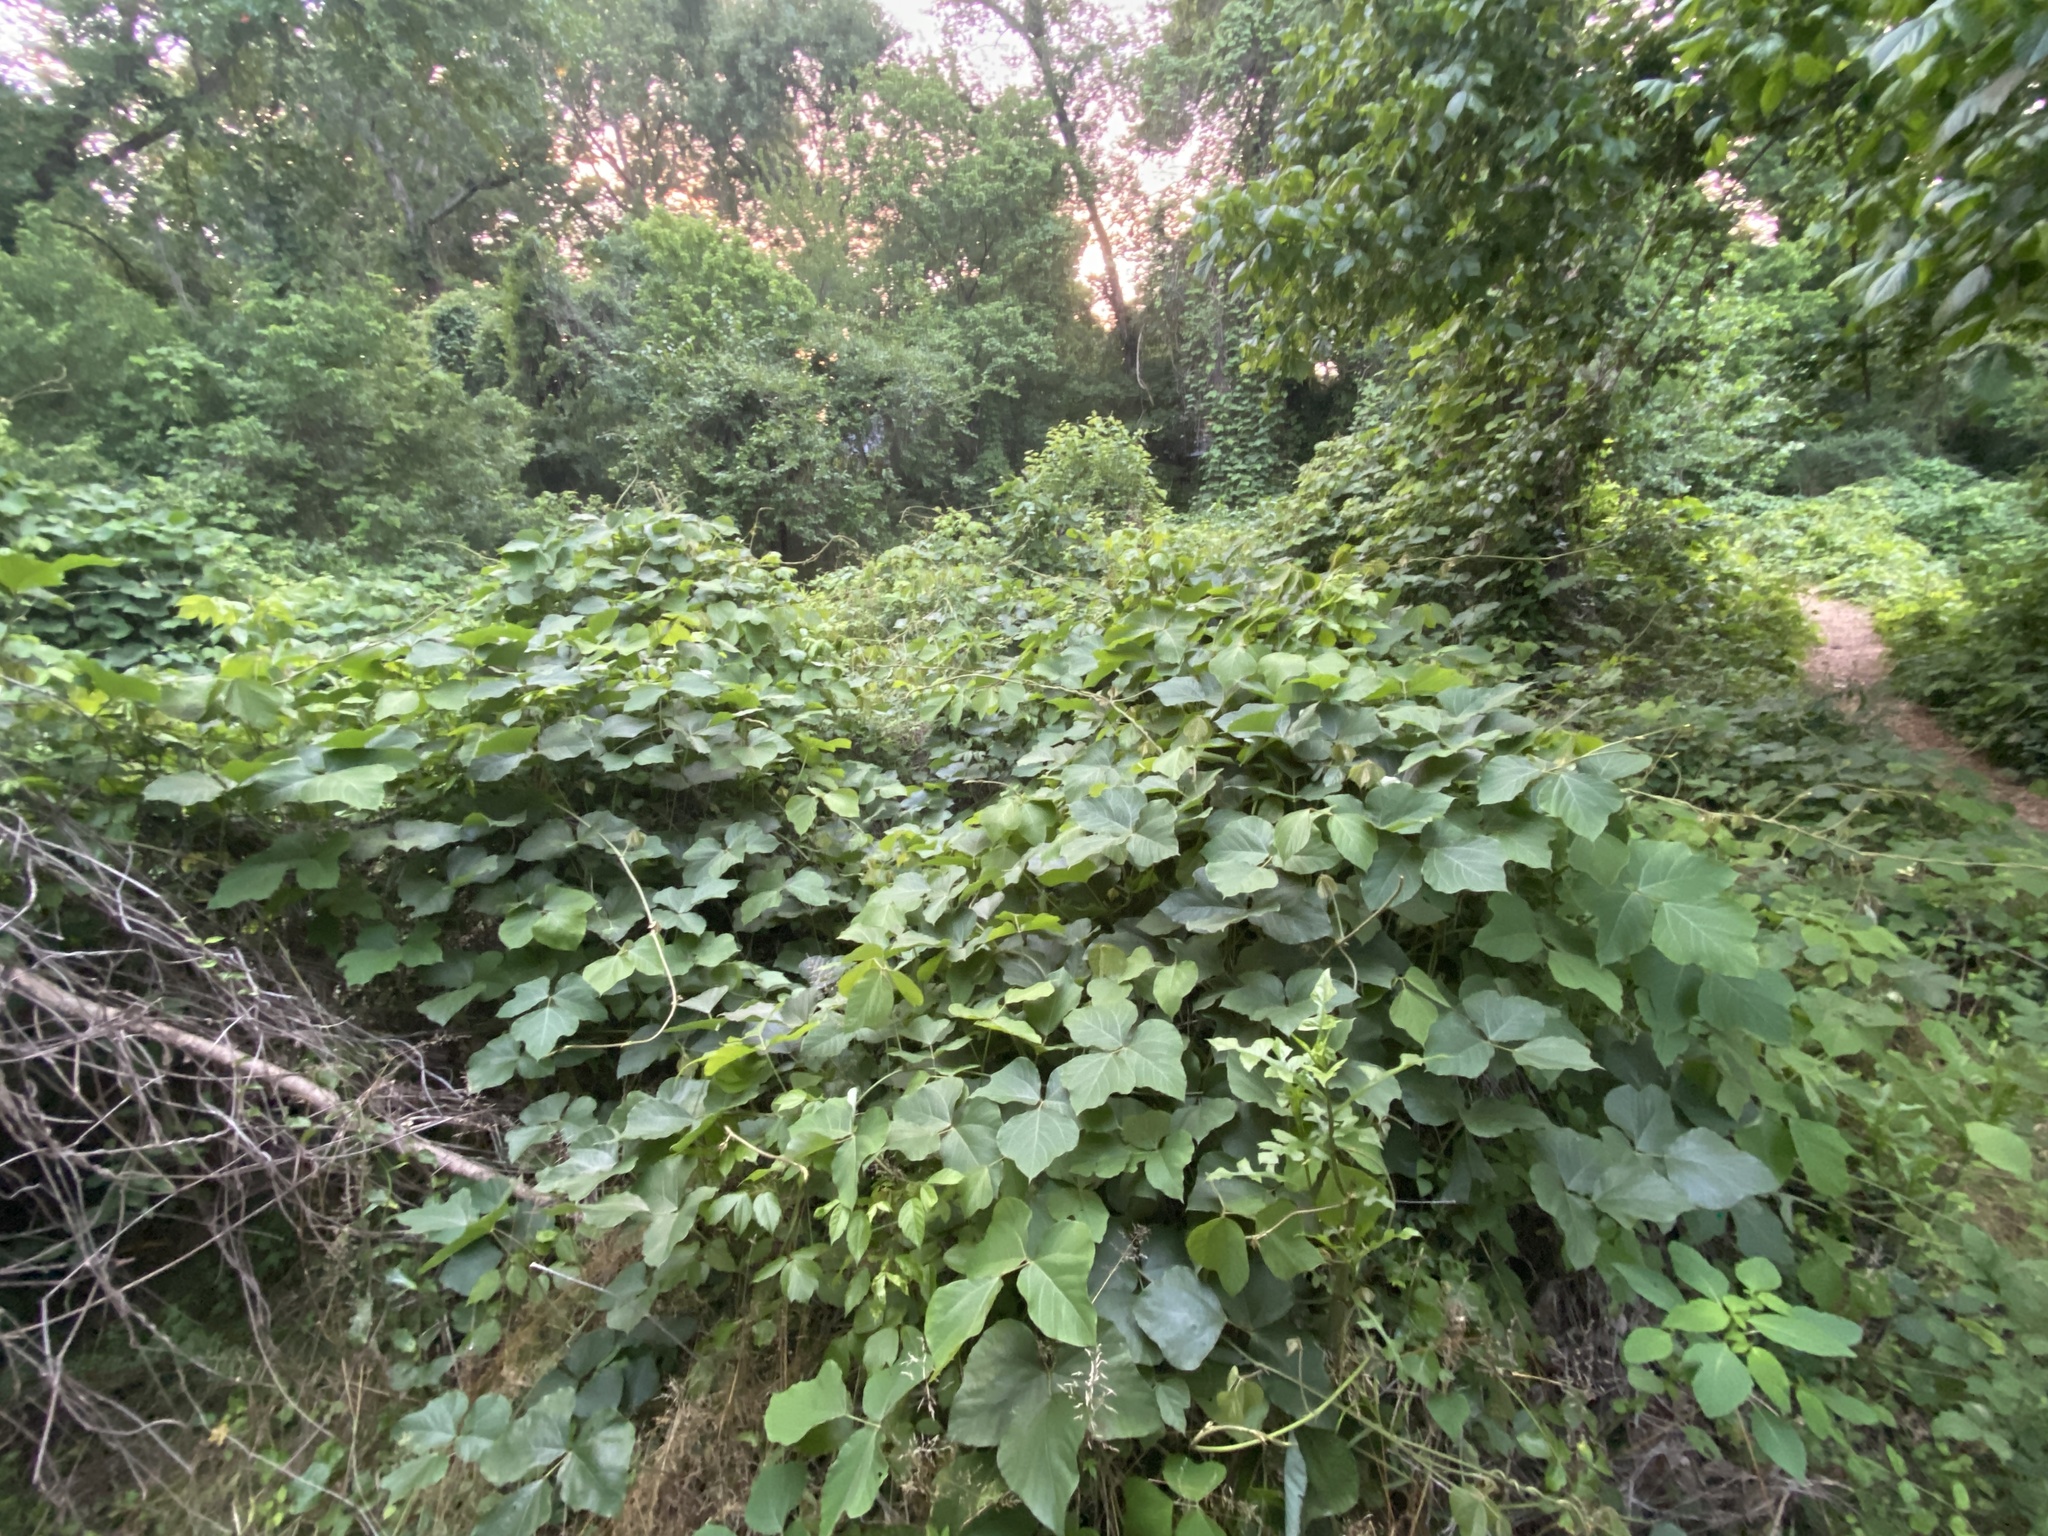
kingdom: Plantae
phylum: Tracheophyta
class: Magnoliopsida
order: Fabales
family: Fabaceae
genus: Pueraria
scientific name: Pueraria montana
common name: Kudzu
